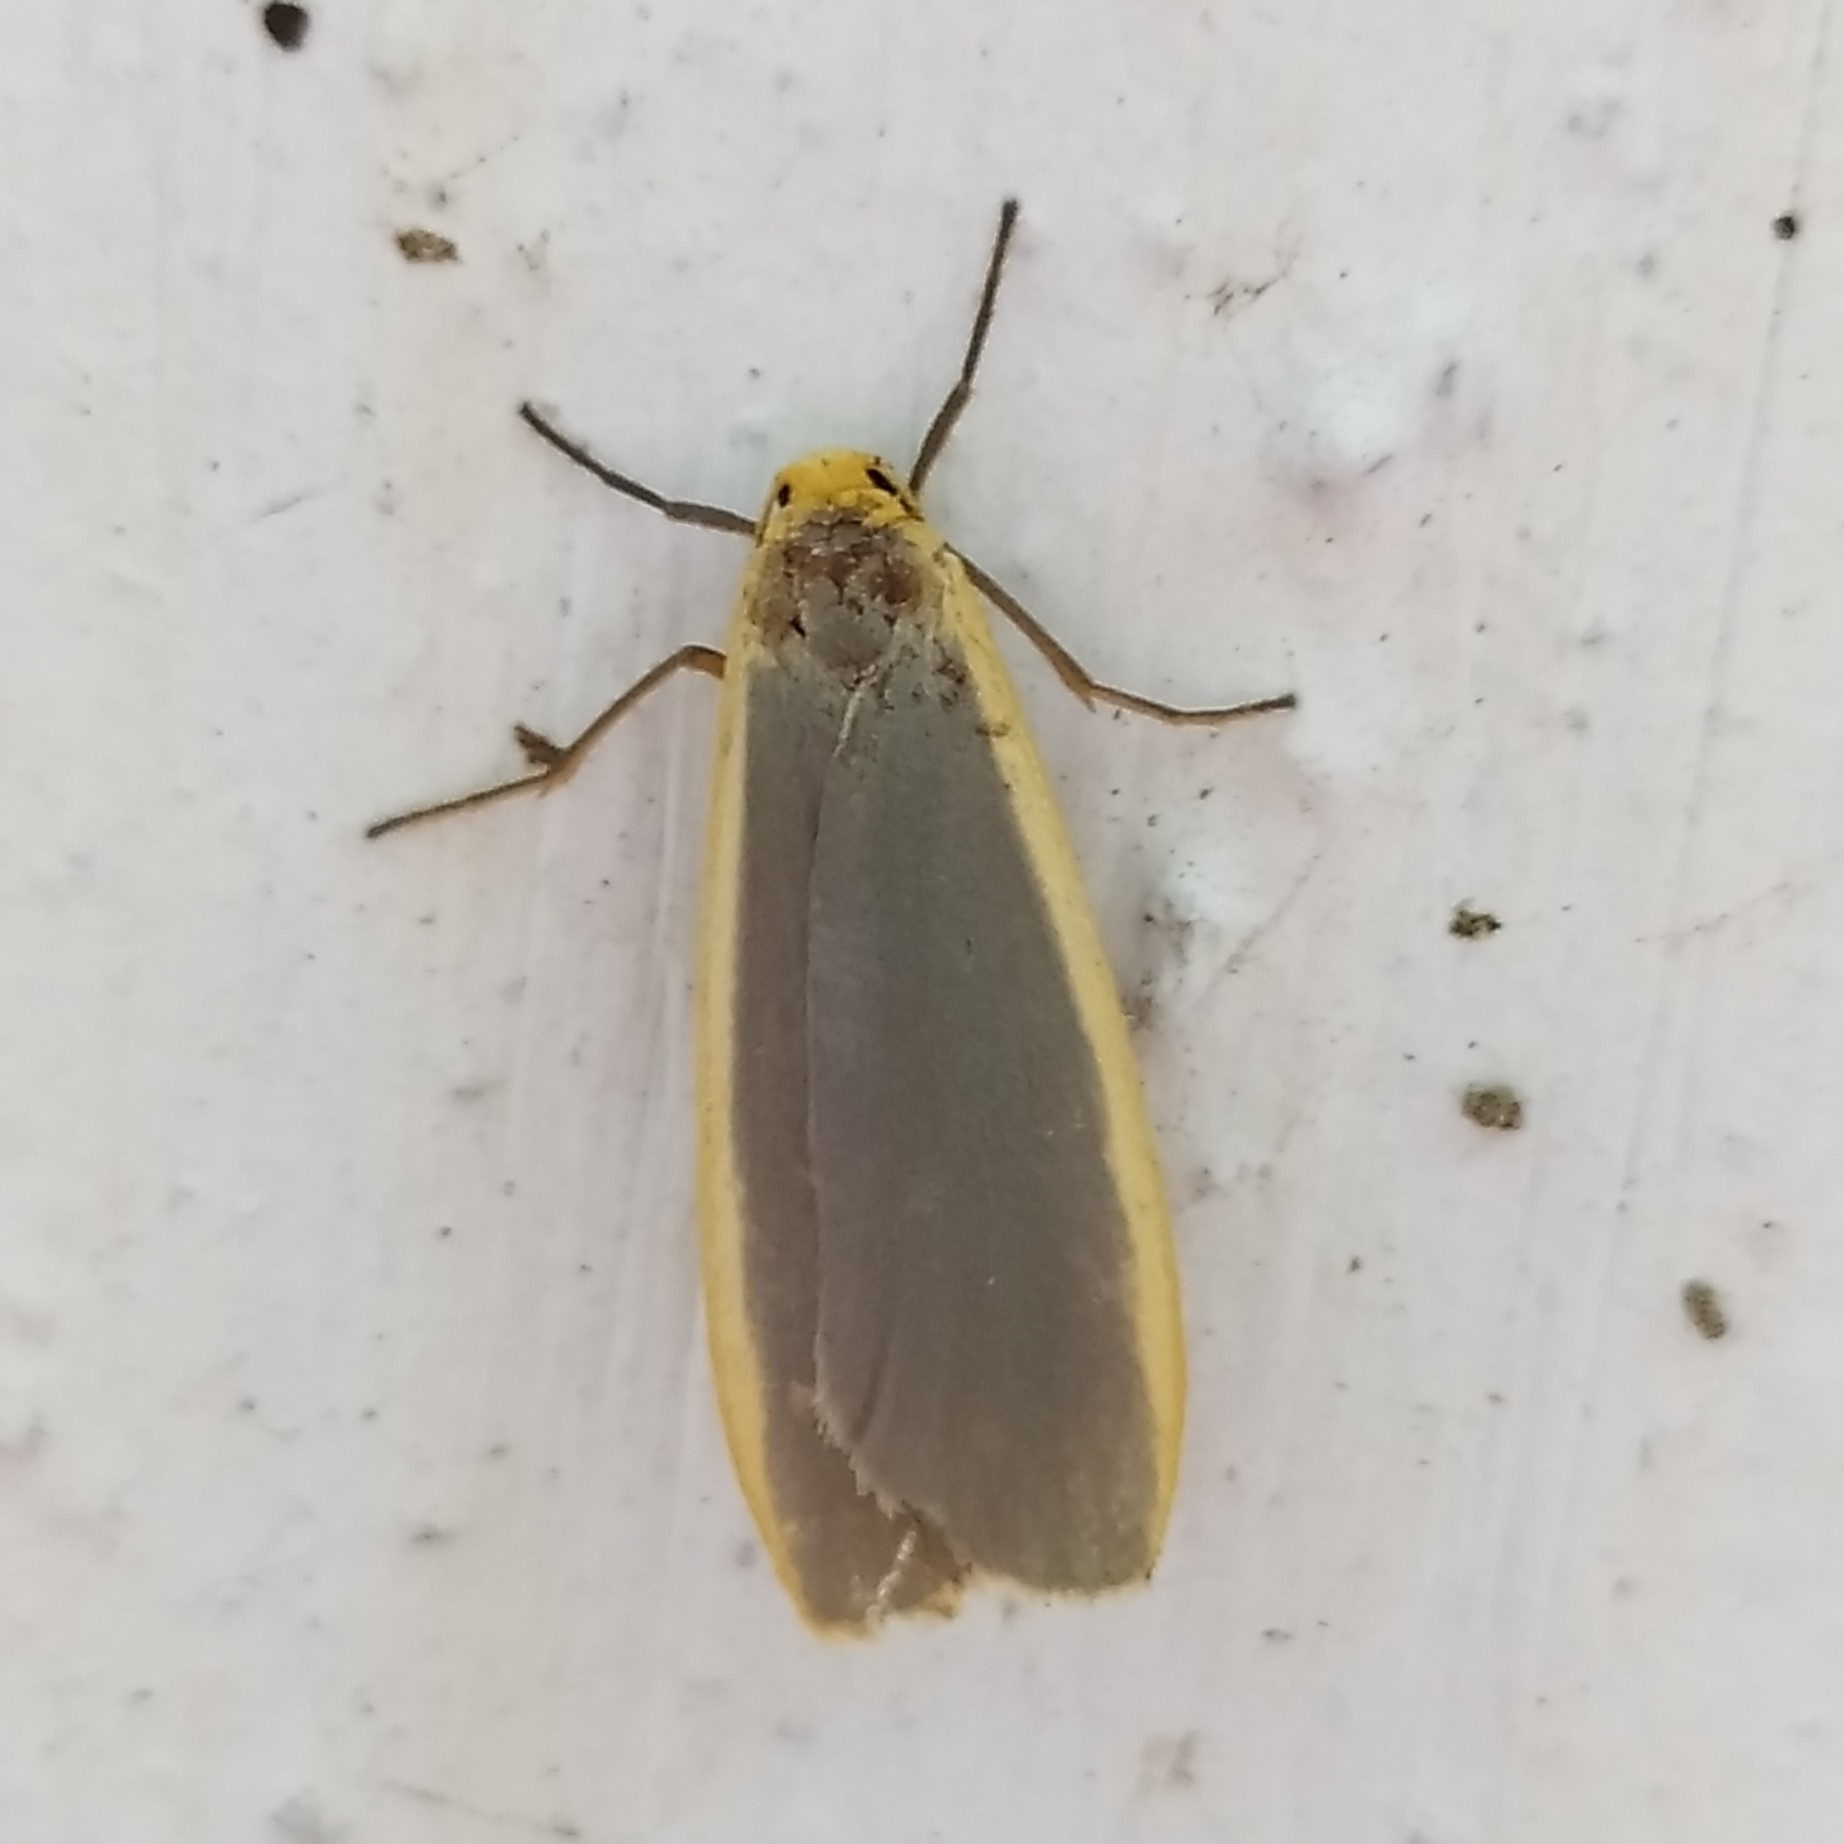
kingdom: Animalia
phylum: Arthropoda
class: Insecta
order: Lepidoptera
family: Erebidae
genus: Nyea
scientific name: Nyea lurideola
